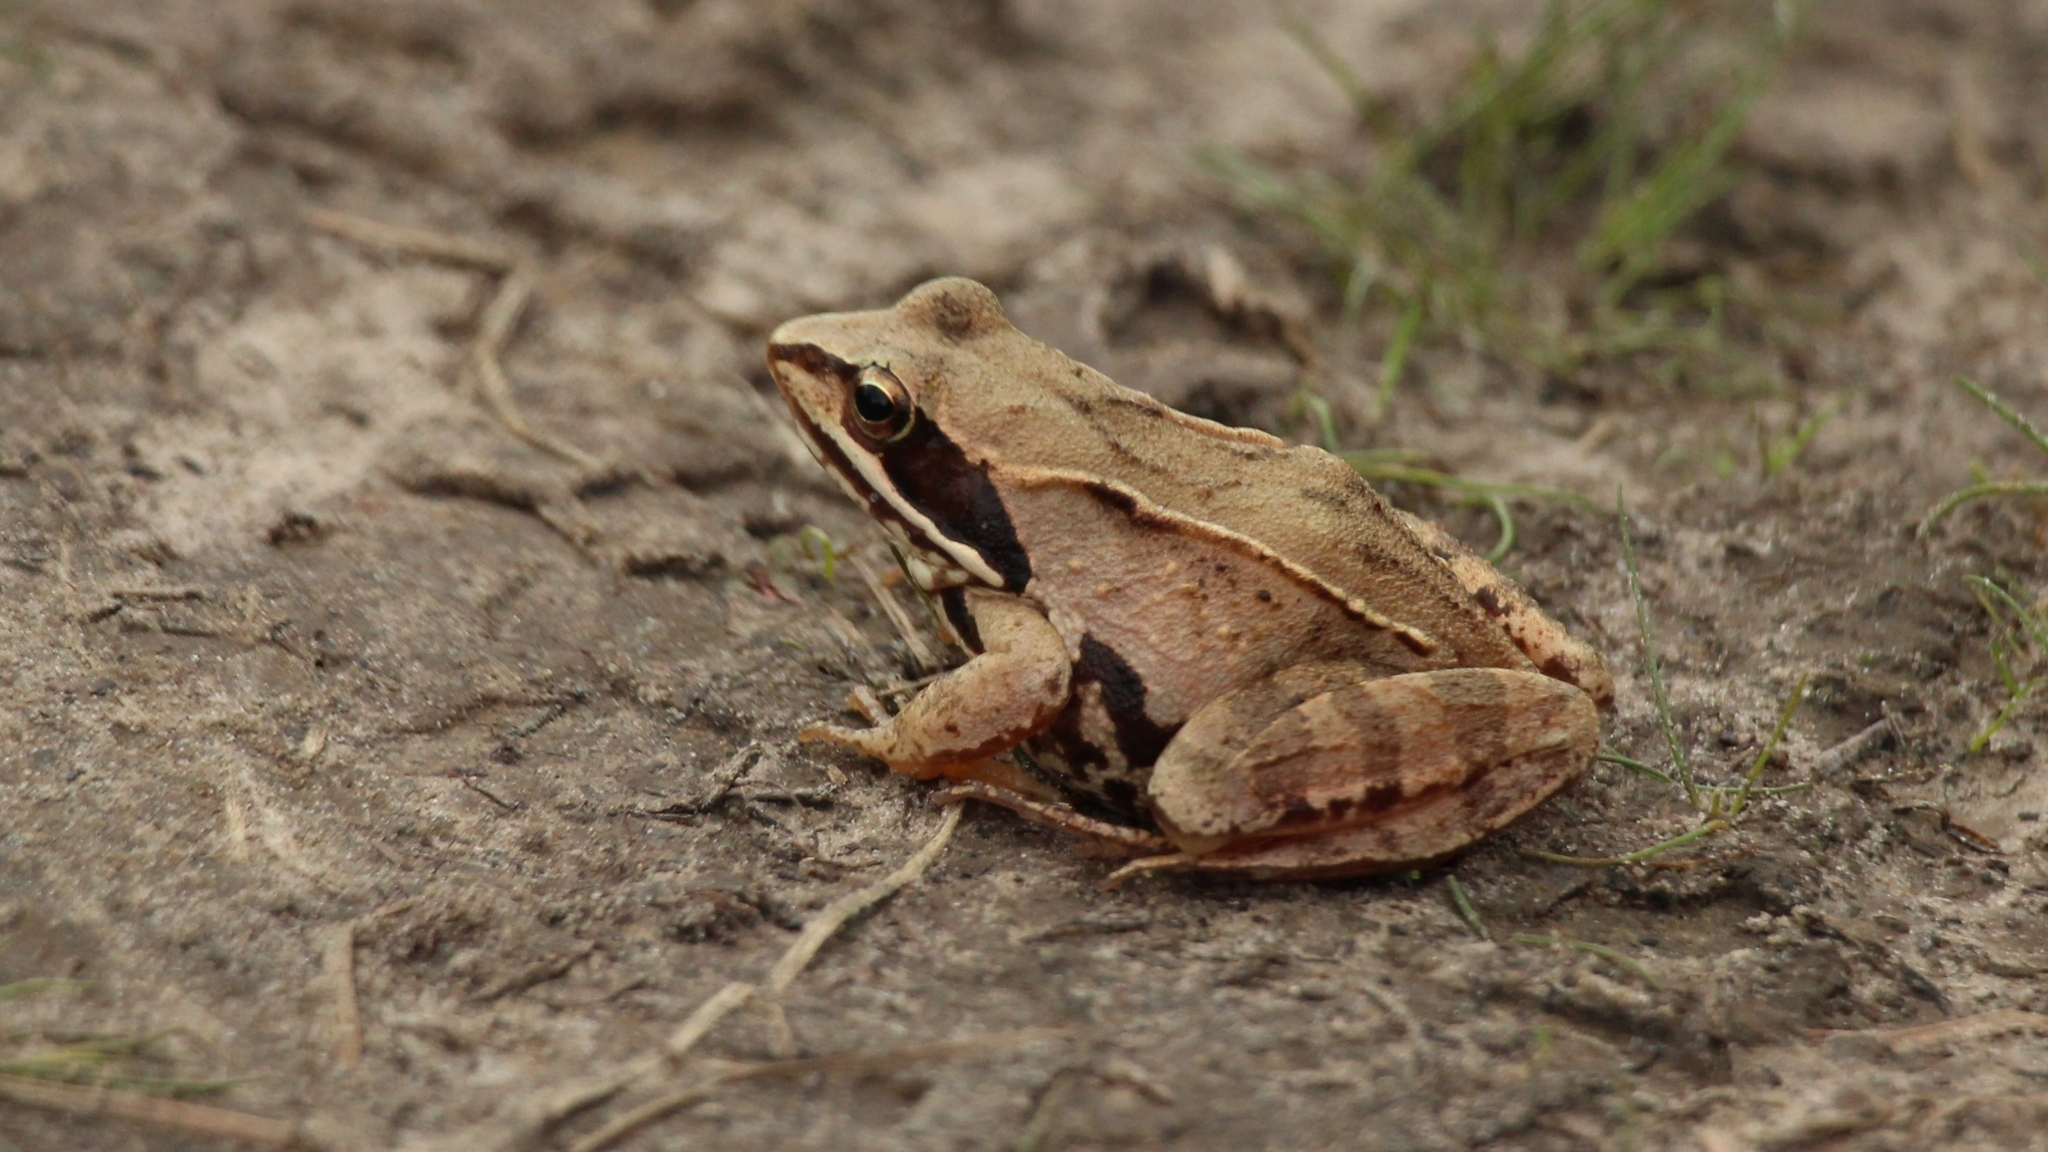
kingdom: Animalia
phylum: Chordata
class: Amphibia
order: Anura
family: Ranidae
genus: Rana
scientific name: Rana arvalis
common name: Moor frog
